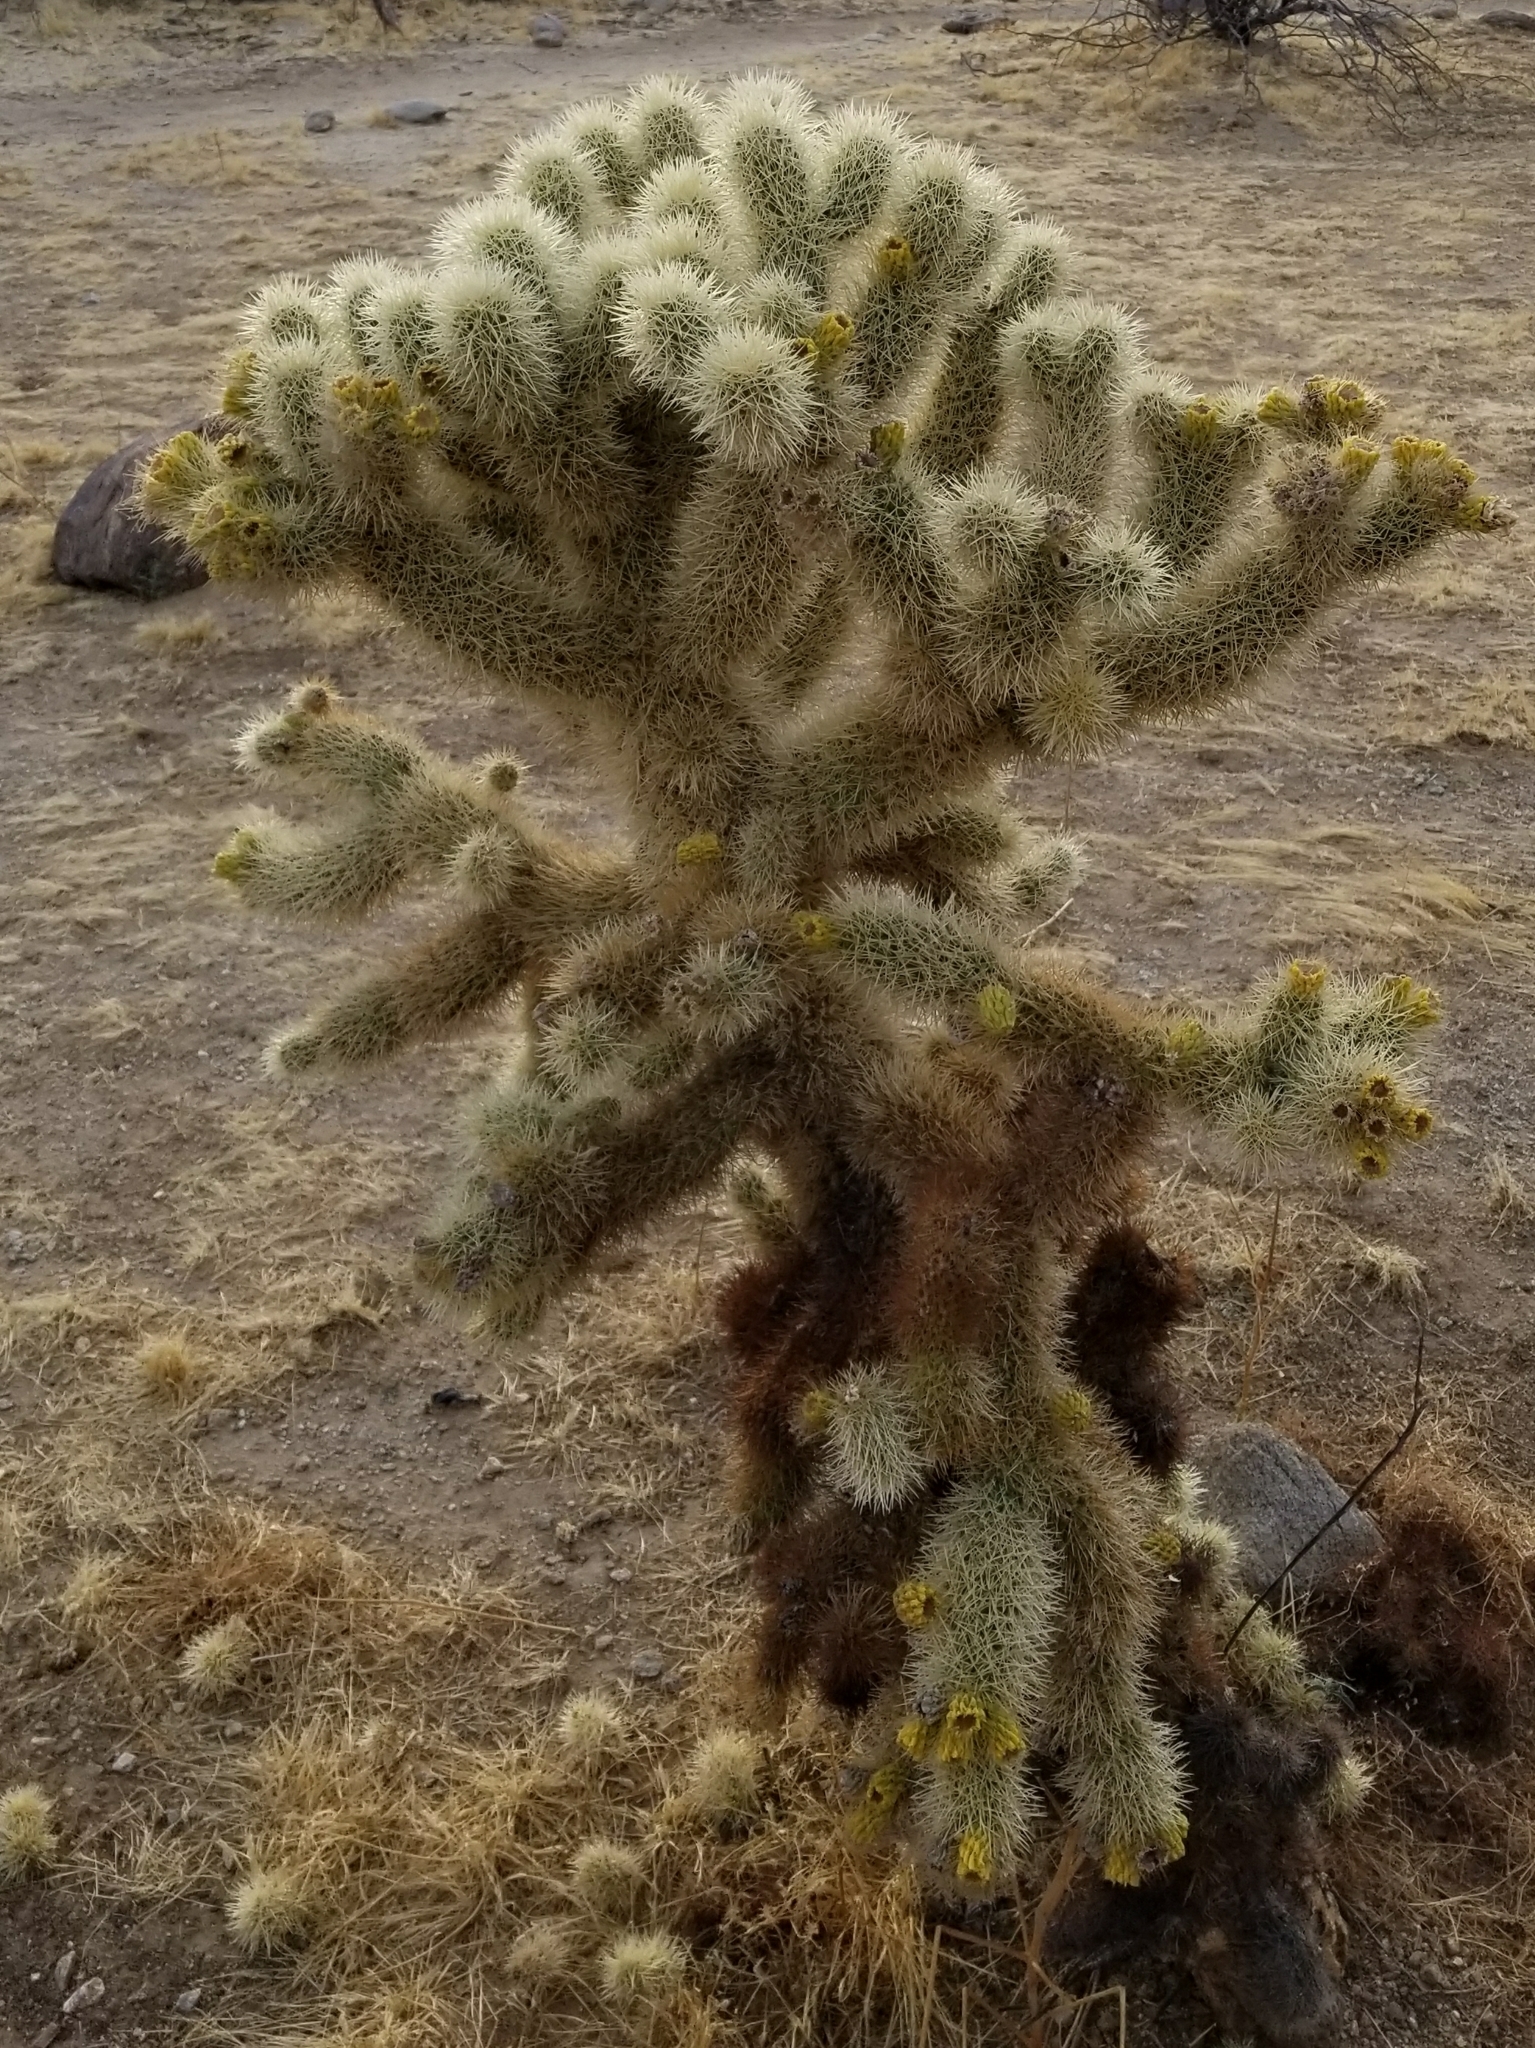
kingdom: Plantae
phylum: Tracheophyta
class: Magnoliopsida
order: Caryophyllales
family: Cactaceae
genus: Cylindropuntia
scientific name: Cylindropuntia fosbergii
